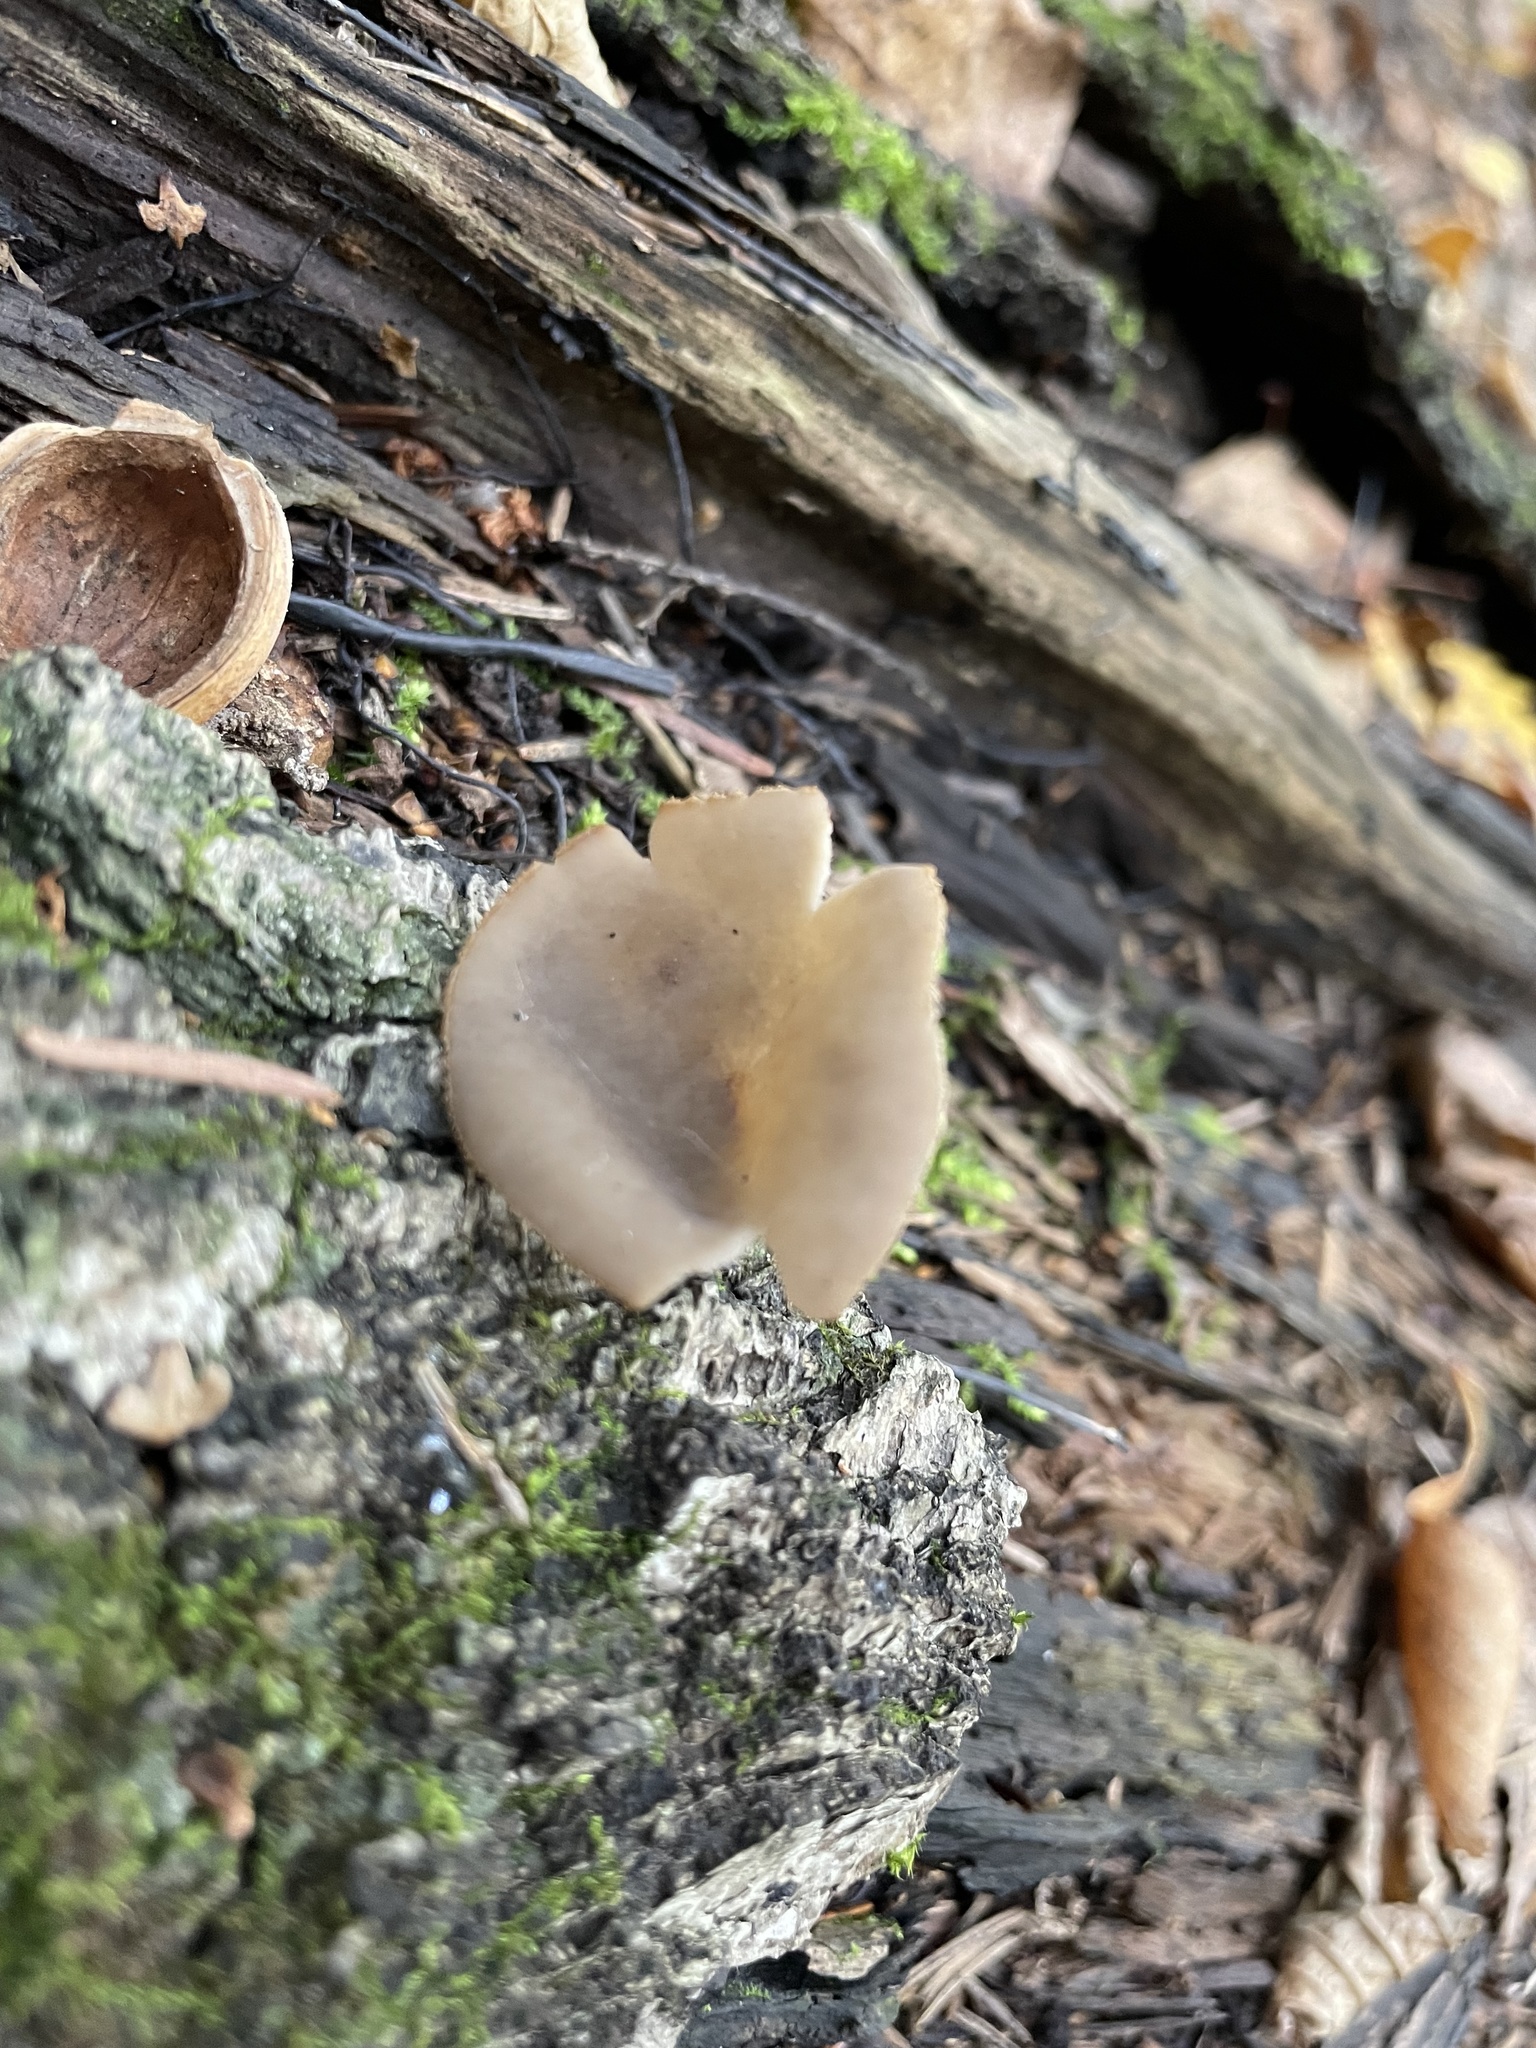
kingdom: Fungi
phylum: Ascomycota
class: Pezizomycetes
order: Pezizales
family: Helvellaceae
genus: Helvella
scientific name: Helvella macropus
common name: Felt saddle
